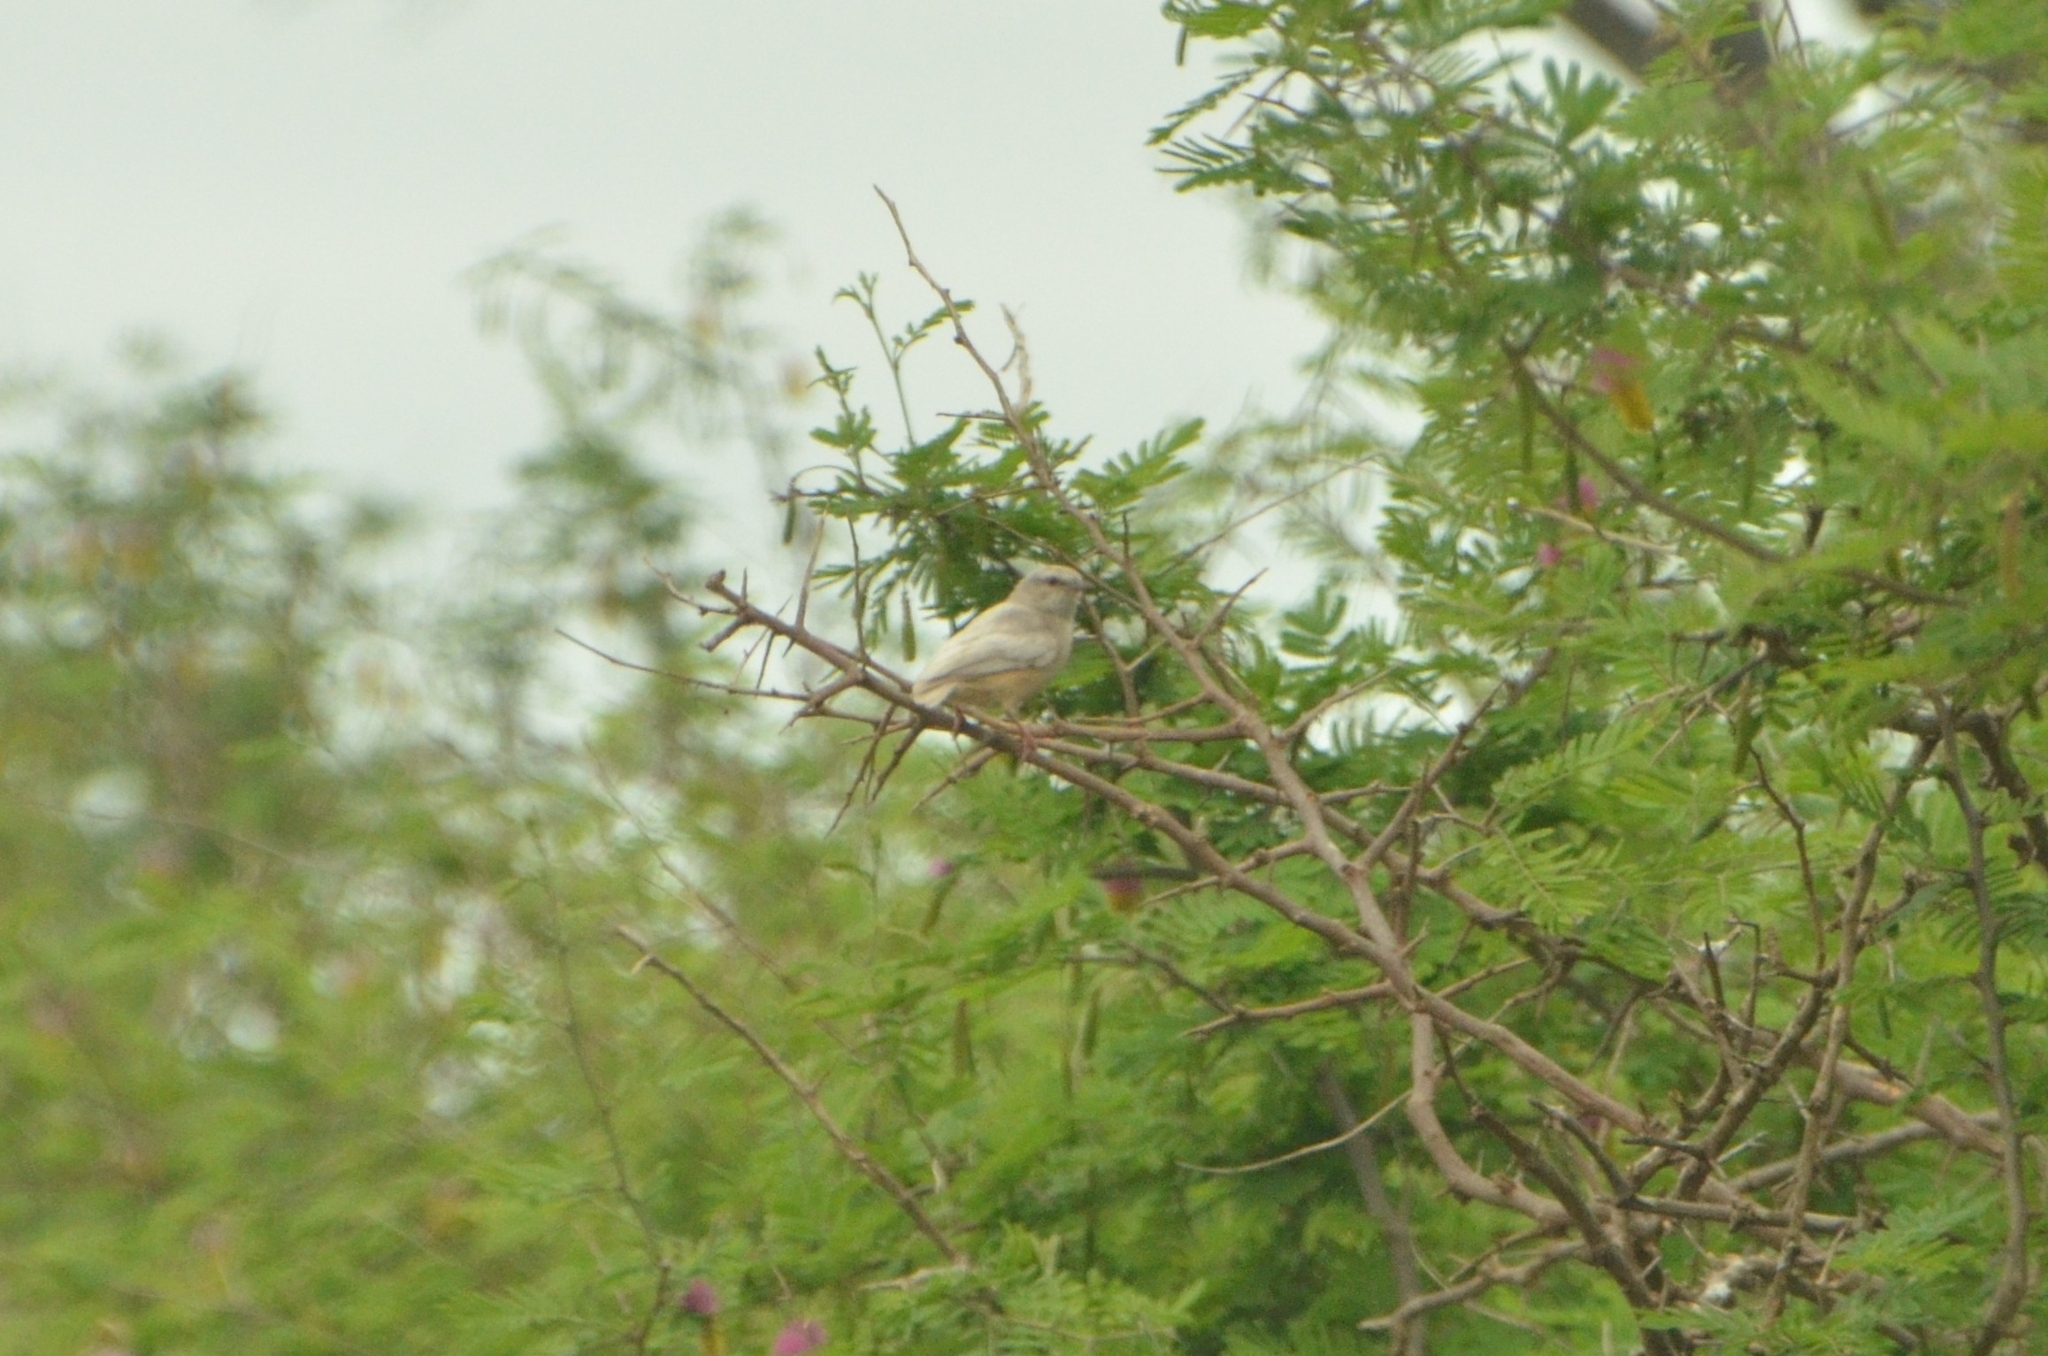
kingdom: Animalia
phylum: Chordata
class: Aves
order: Passeriformes
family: Macrosphenidae
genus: Sylvietta
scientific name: Sylvietta rufescens
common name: Long-billed crombec
